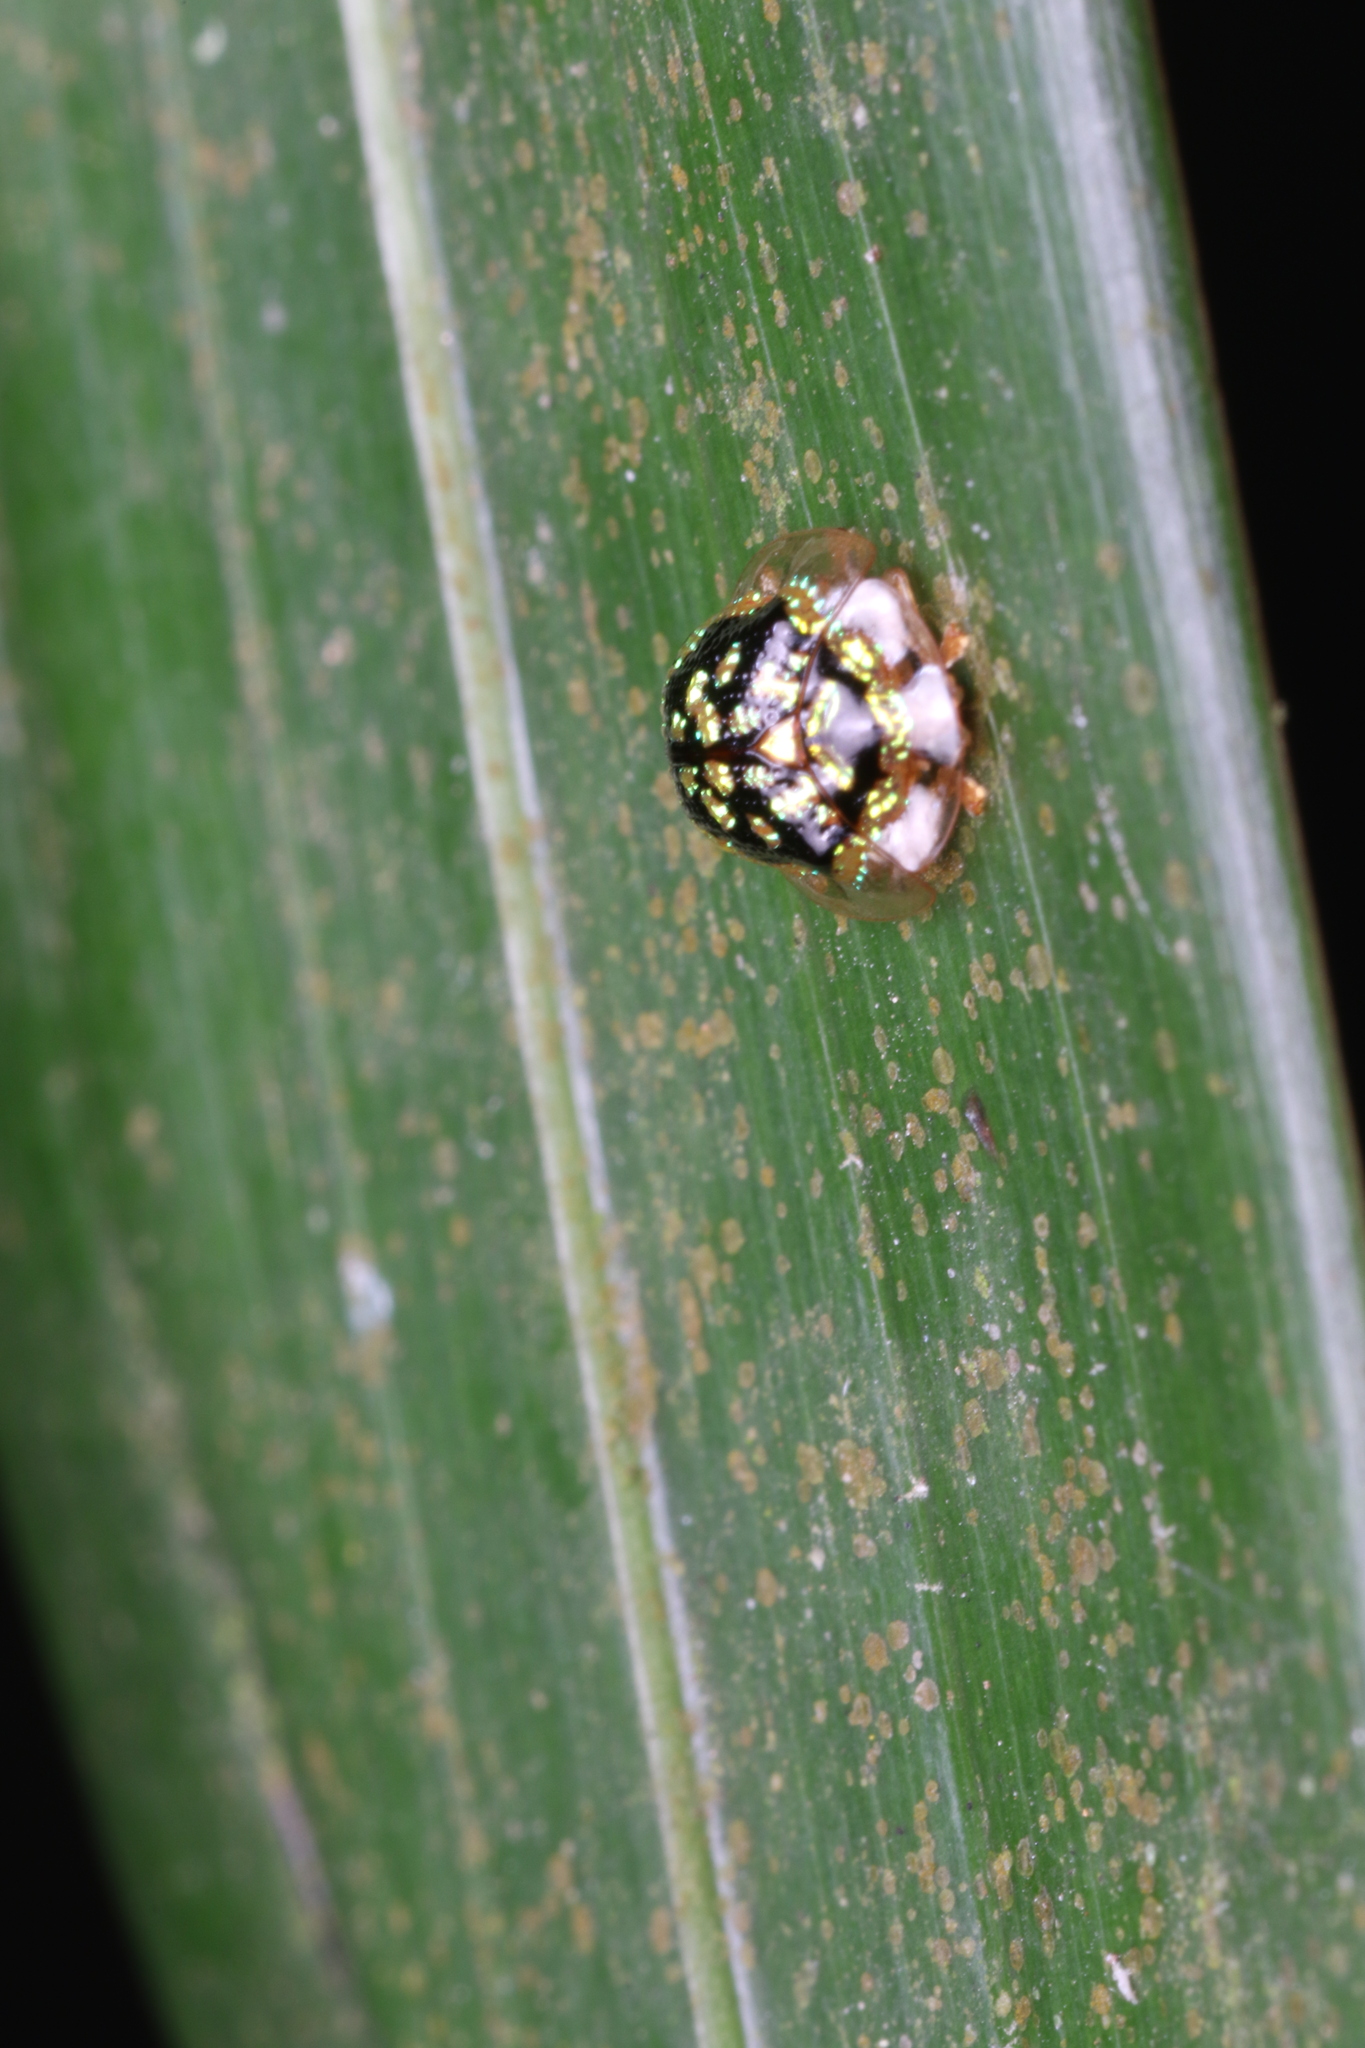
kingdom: Animalia
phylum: Arthropoda
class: Insecta
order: Coleoptera
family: Chrysomelidae
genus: Microctenochira
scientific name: Microctenochira brasiliensis
